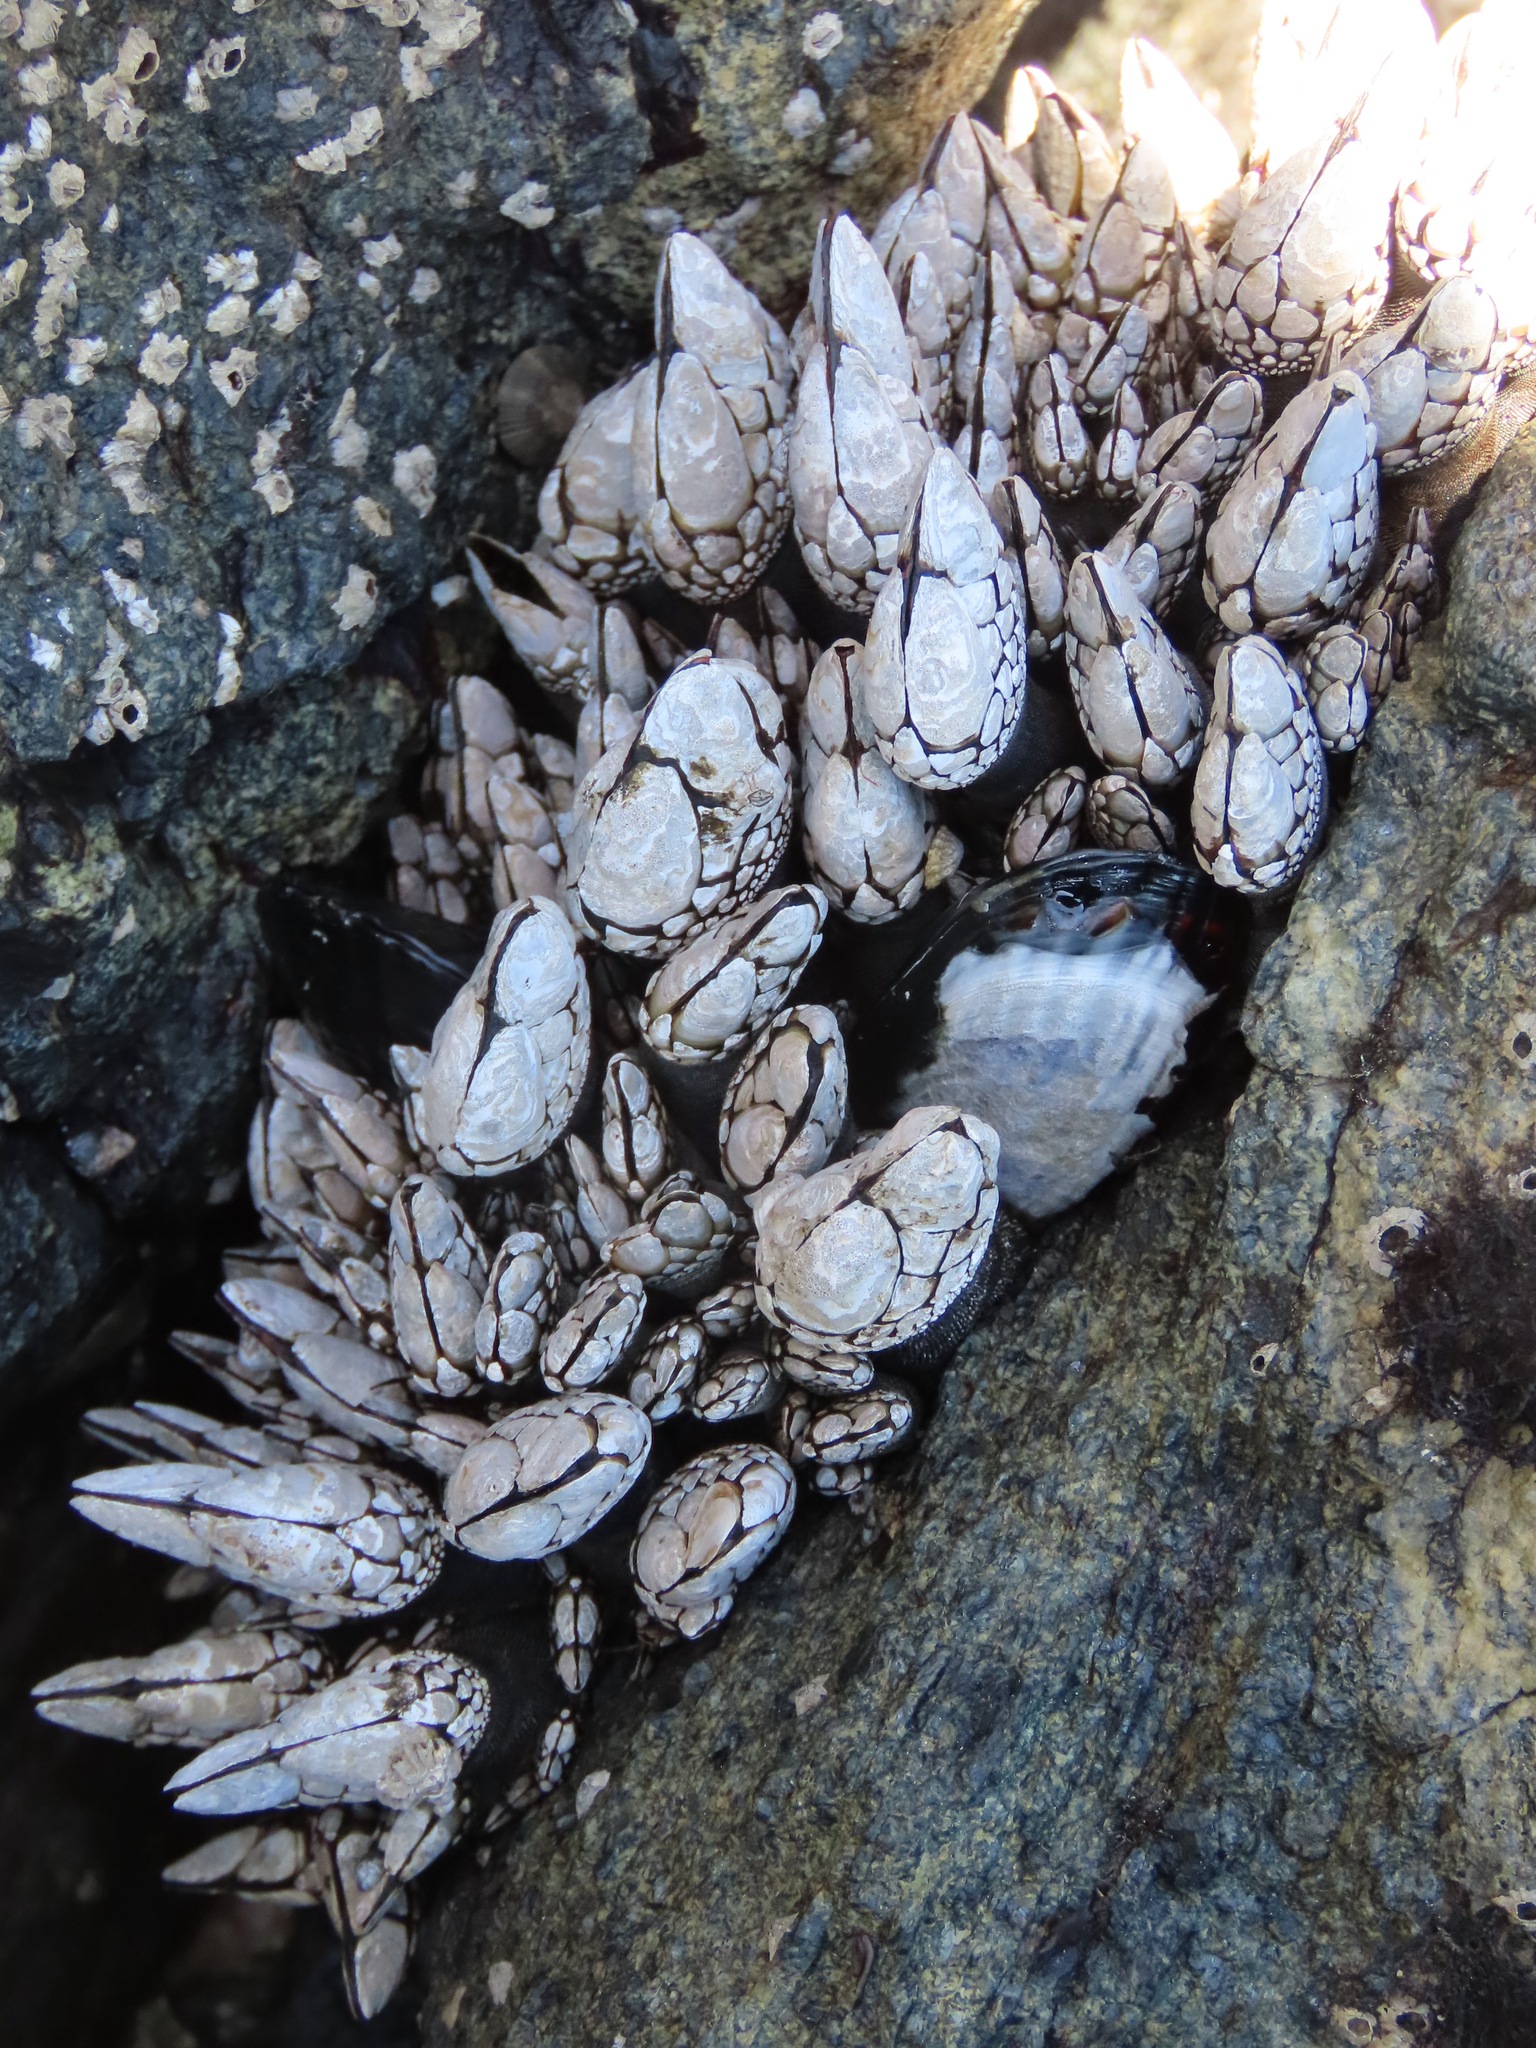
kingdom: Animalia
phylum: Arthropoda
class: Maxillopoda
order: Pedunculata
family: Pollicipedidae
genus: Pollicipes
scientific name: Pollicipes polymerus
